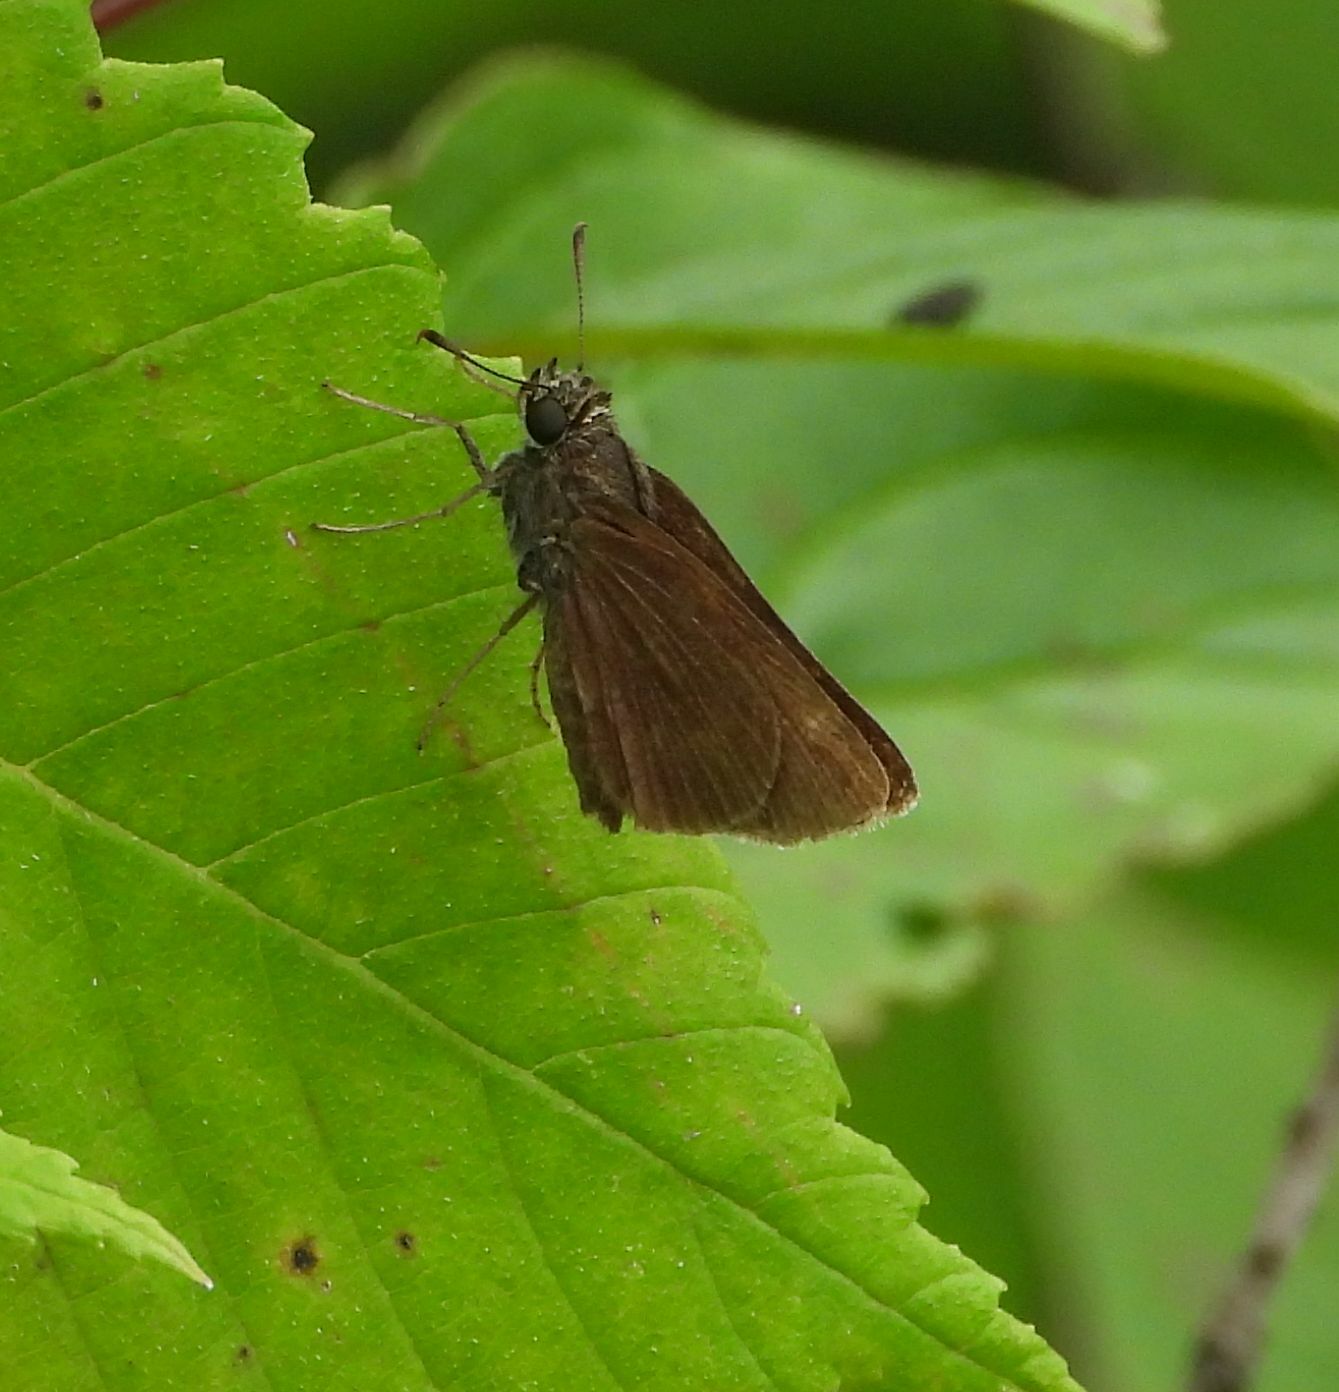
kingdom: Animalia
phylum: Arthropoda
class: Insecta
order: Lepidoptera
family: Hesperiidae
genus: Euphyes
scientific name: Euphyes vestris
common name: Dun skipper
